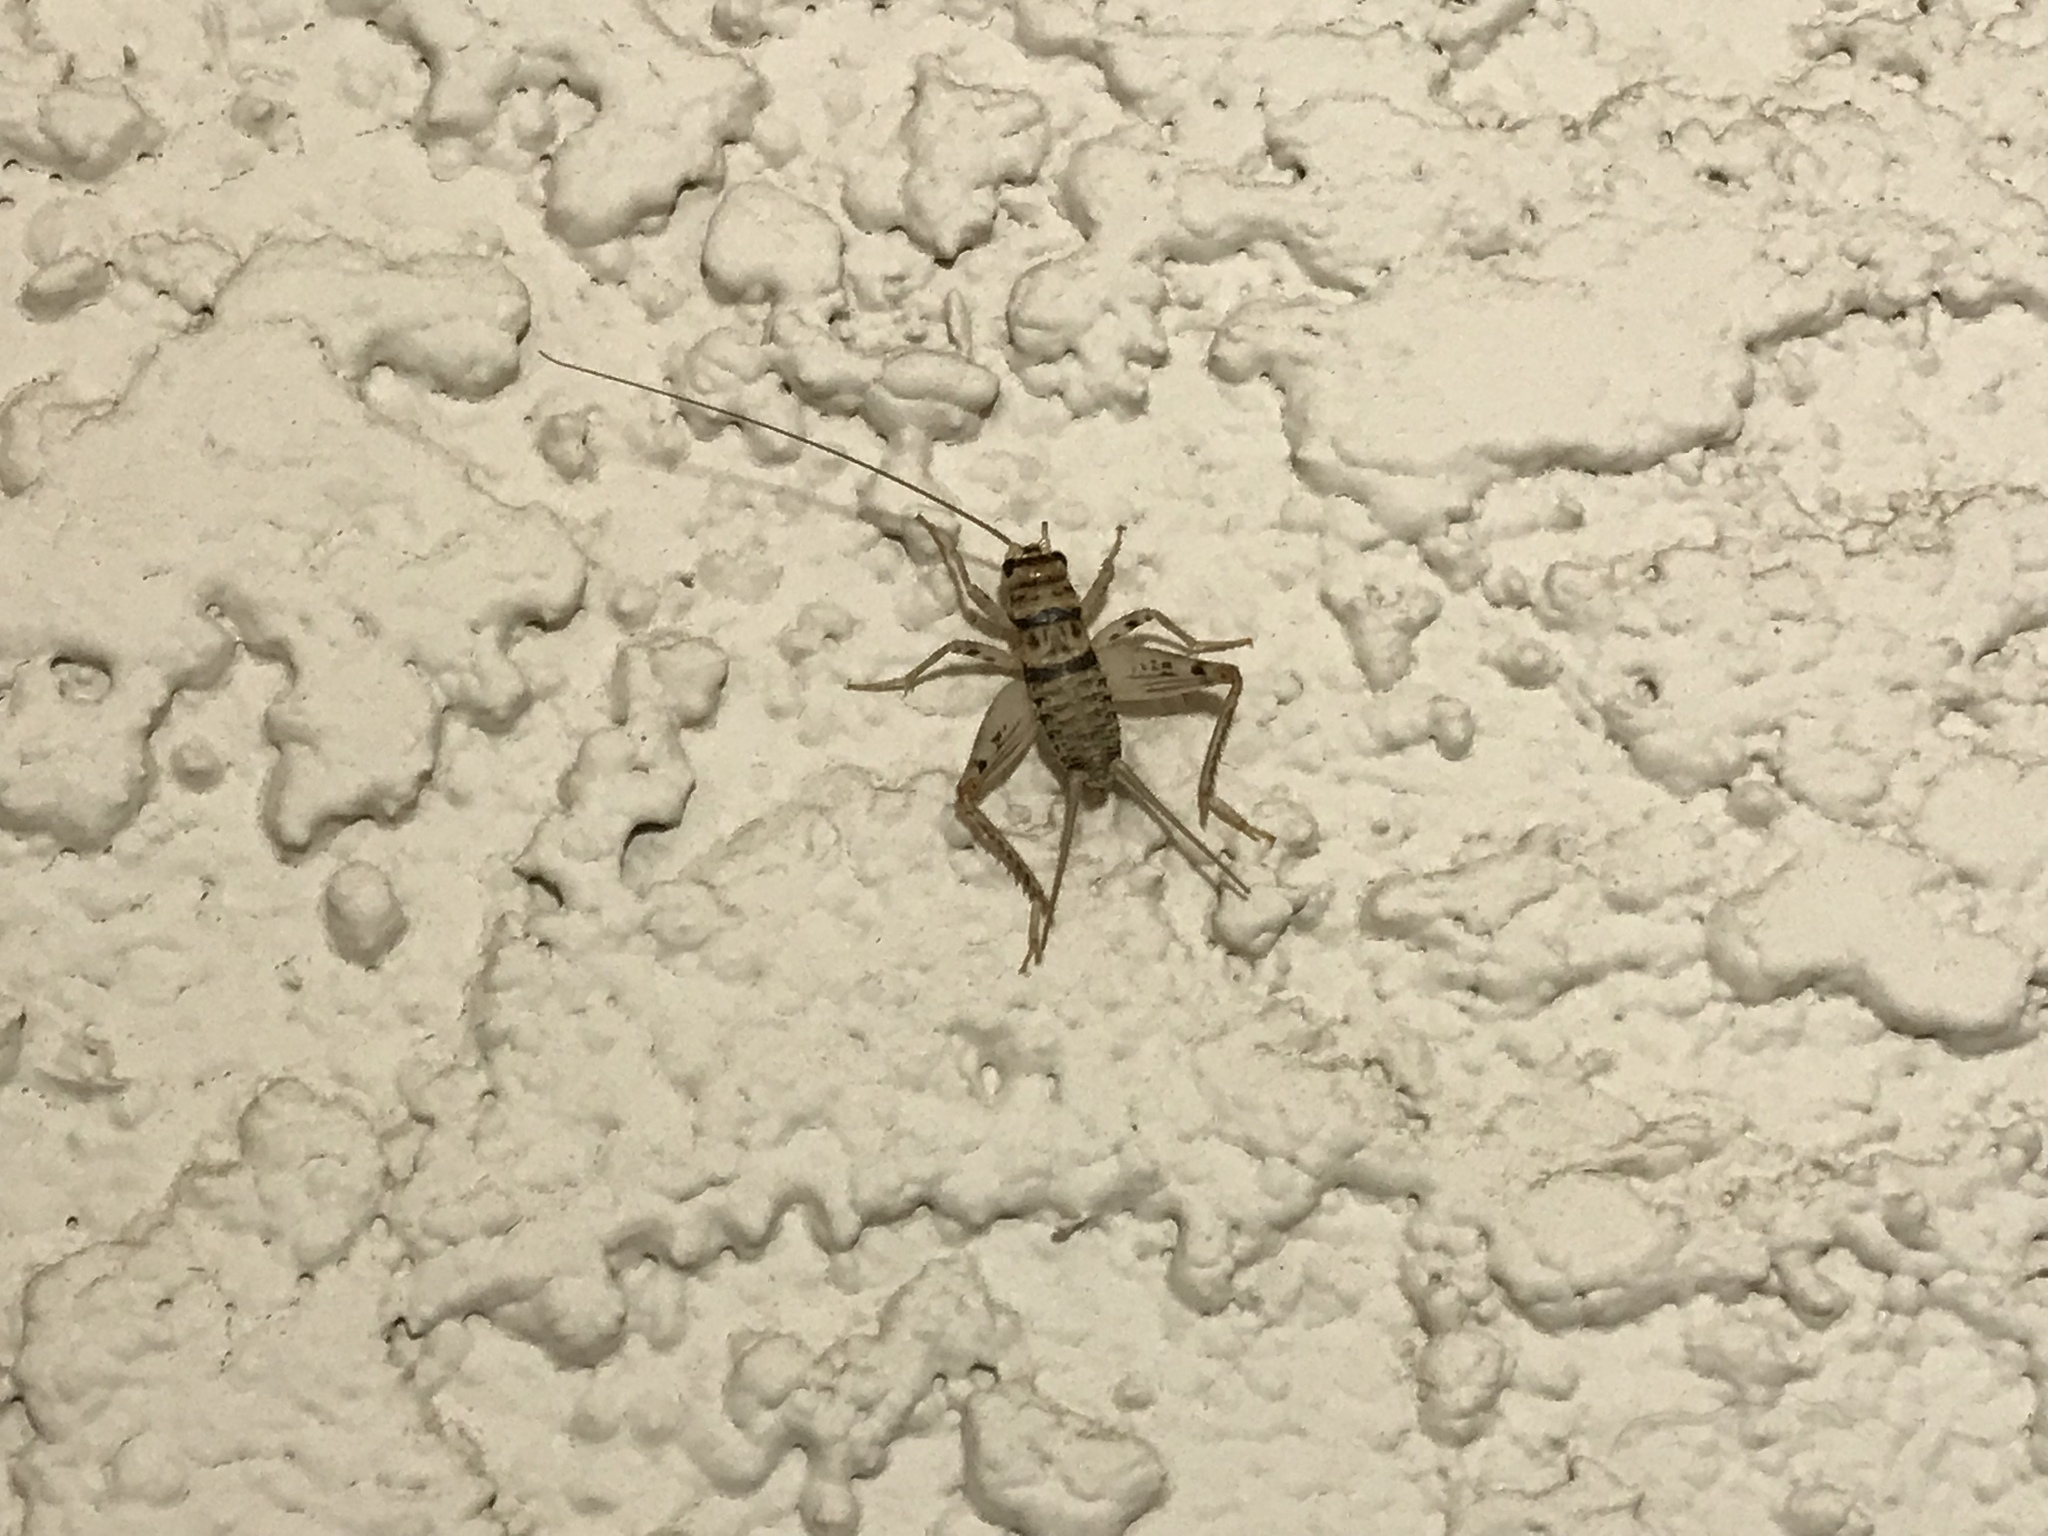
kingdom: Animalia
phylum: Arthropoda
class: Insecta
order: Orthoptera
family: Gryllidae
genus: Gryllodes
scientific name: Gryllodes sigillatus
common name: Tropical house cricket
